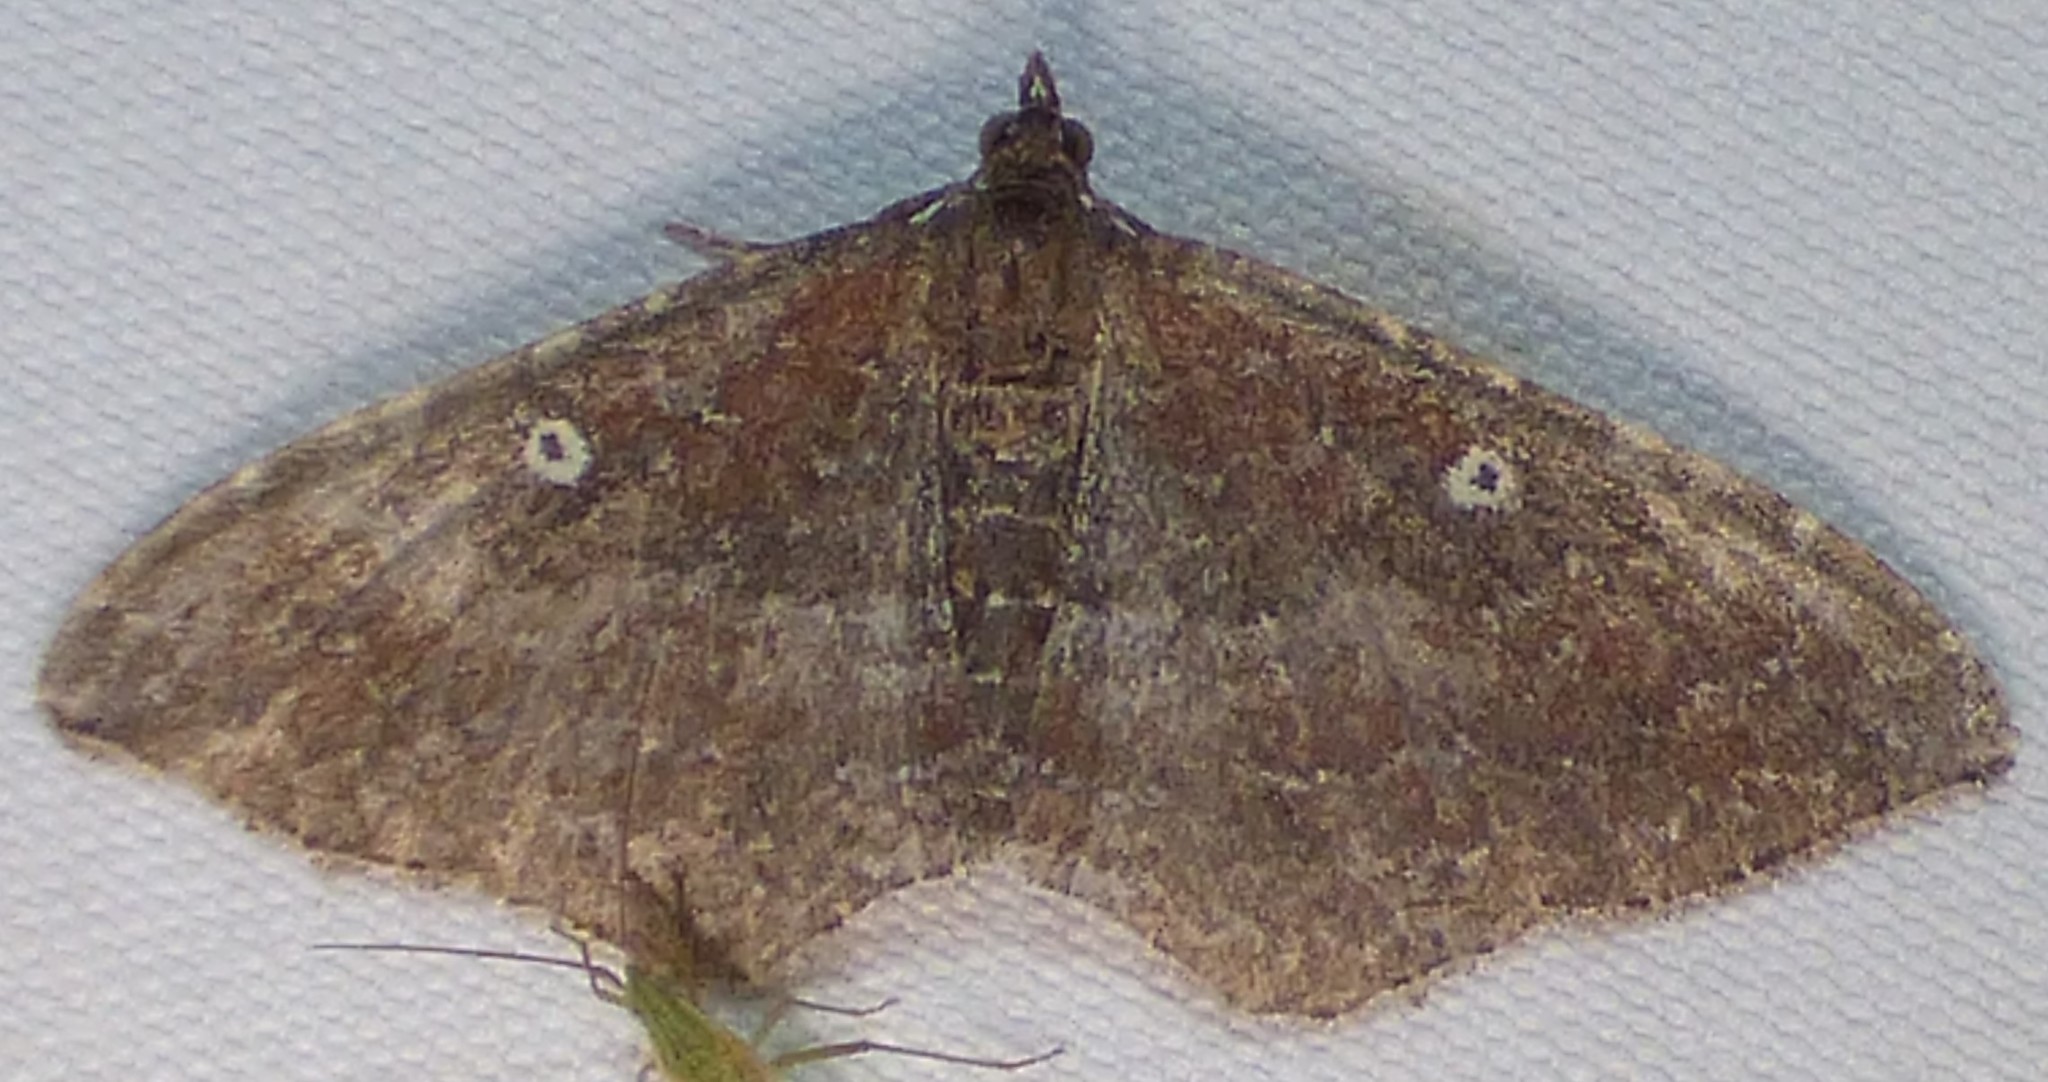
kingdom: Animalia
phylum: Arthropoda
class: Insecta
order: Lepidoptera
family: Geometridae
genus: Orthonama
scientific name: Orthonama obstipata
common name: The gem
